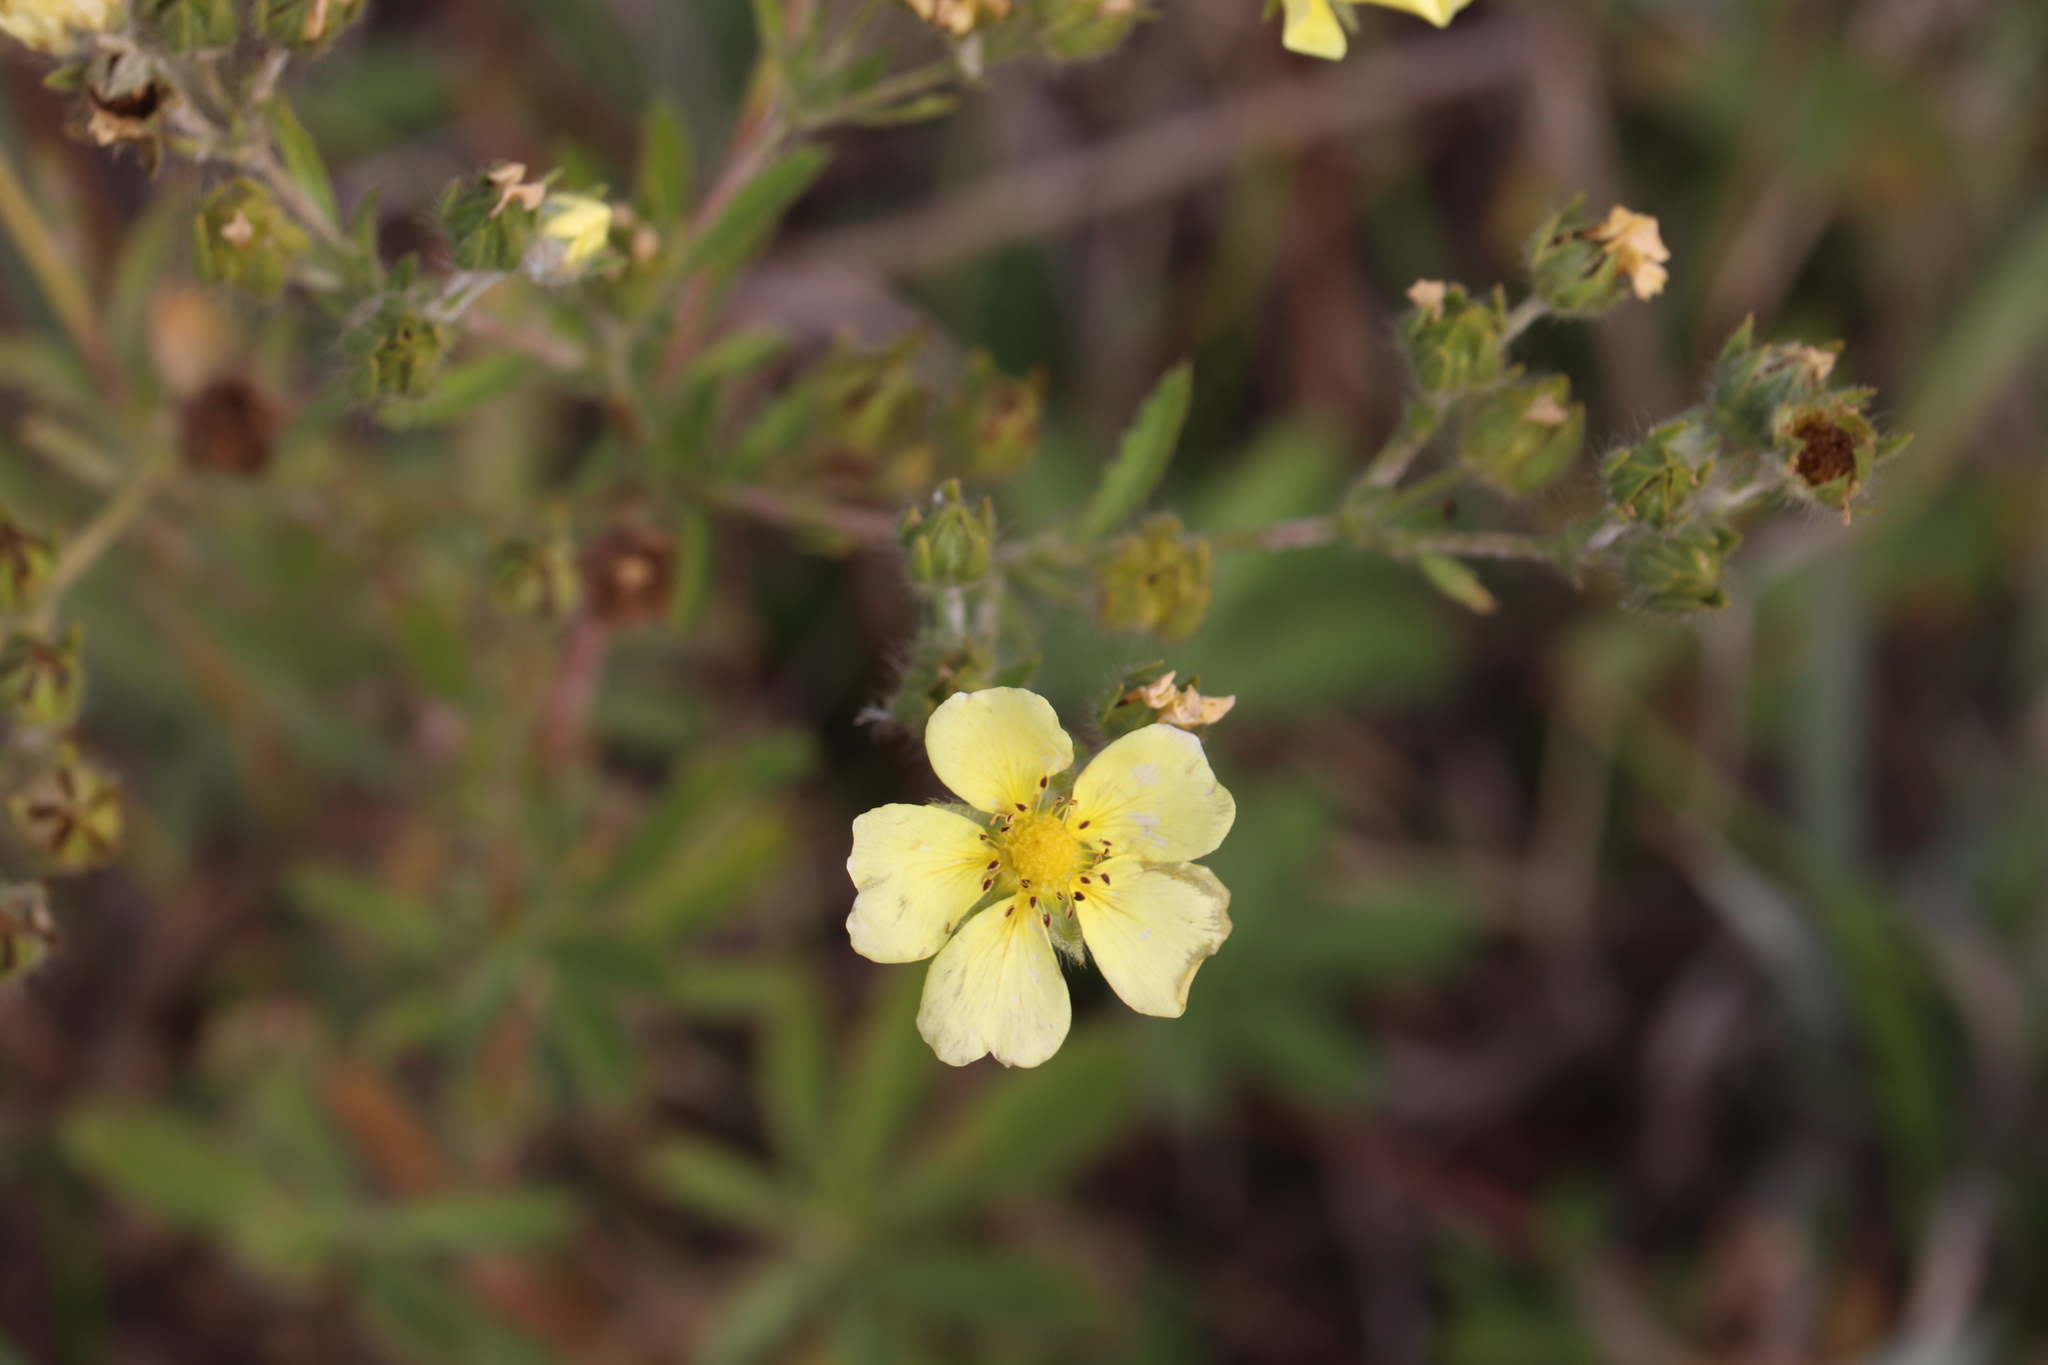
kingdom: Plantae
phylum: Tracheophyta
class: Magnoliopsida
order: Rosales
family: Rosaceae
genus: Potentilla
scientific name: Potentilla recta
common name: Sulphur cinquefoil
